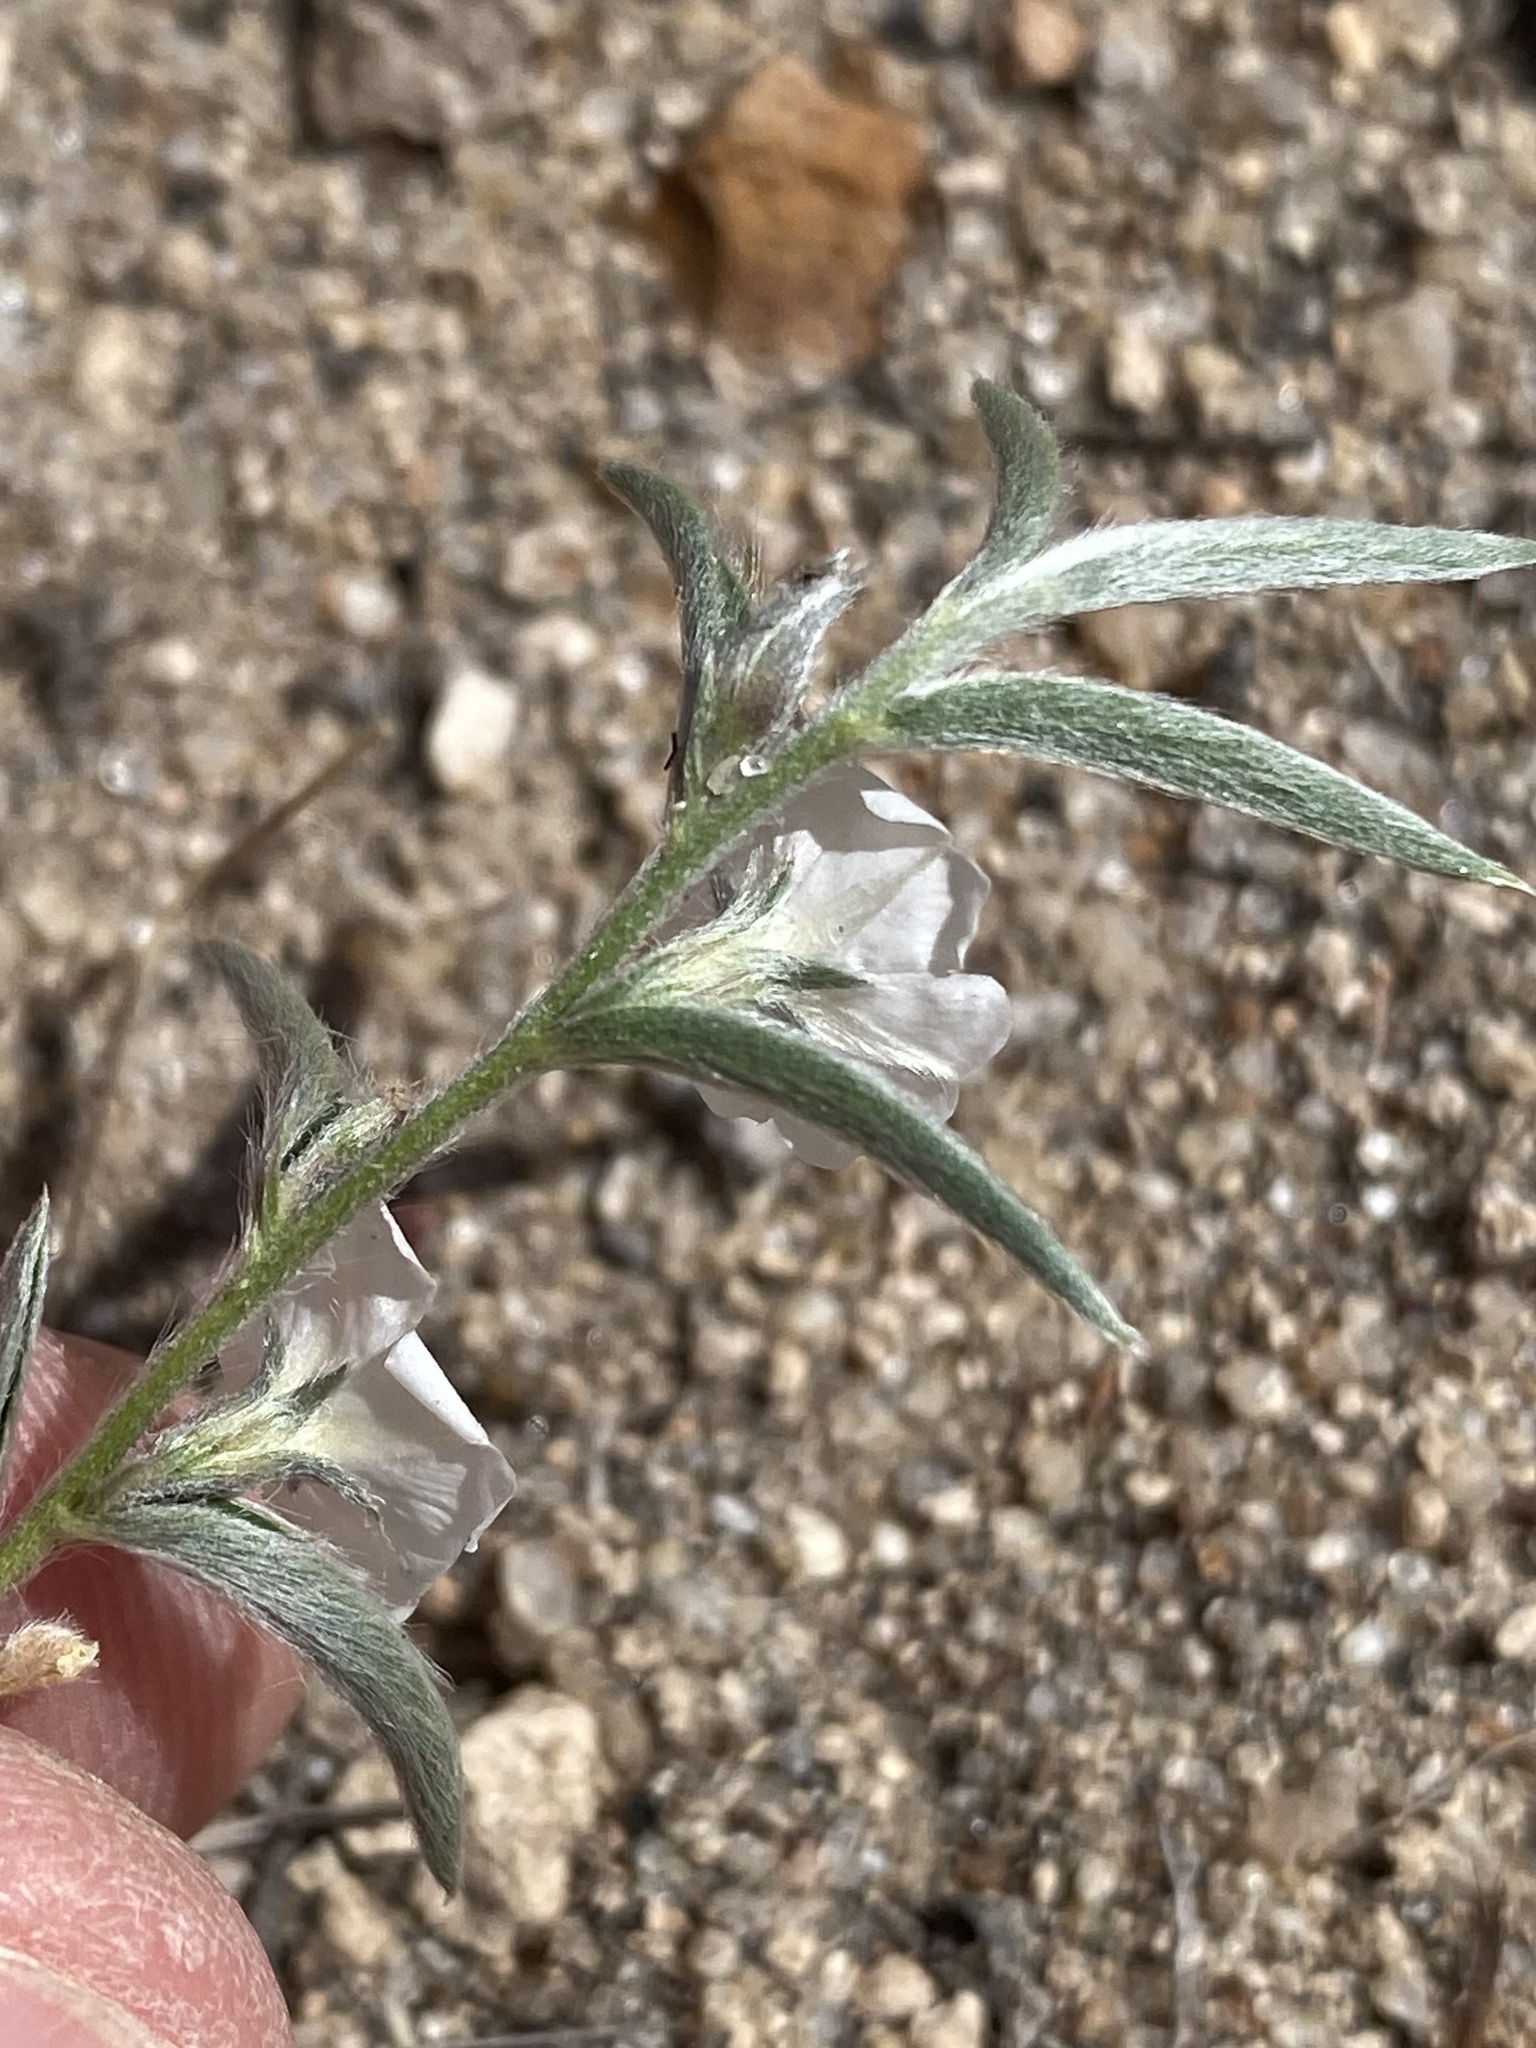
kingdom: Plantae
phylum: Tracheophyta
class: Magnoliopsida
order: Solanales
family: Convolvulaceae
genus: Evolvulus
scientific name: Evolvulus sericeus
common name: Blue dots
